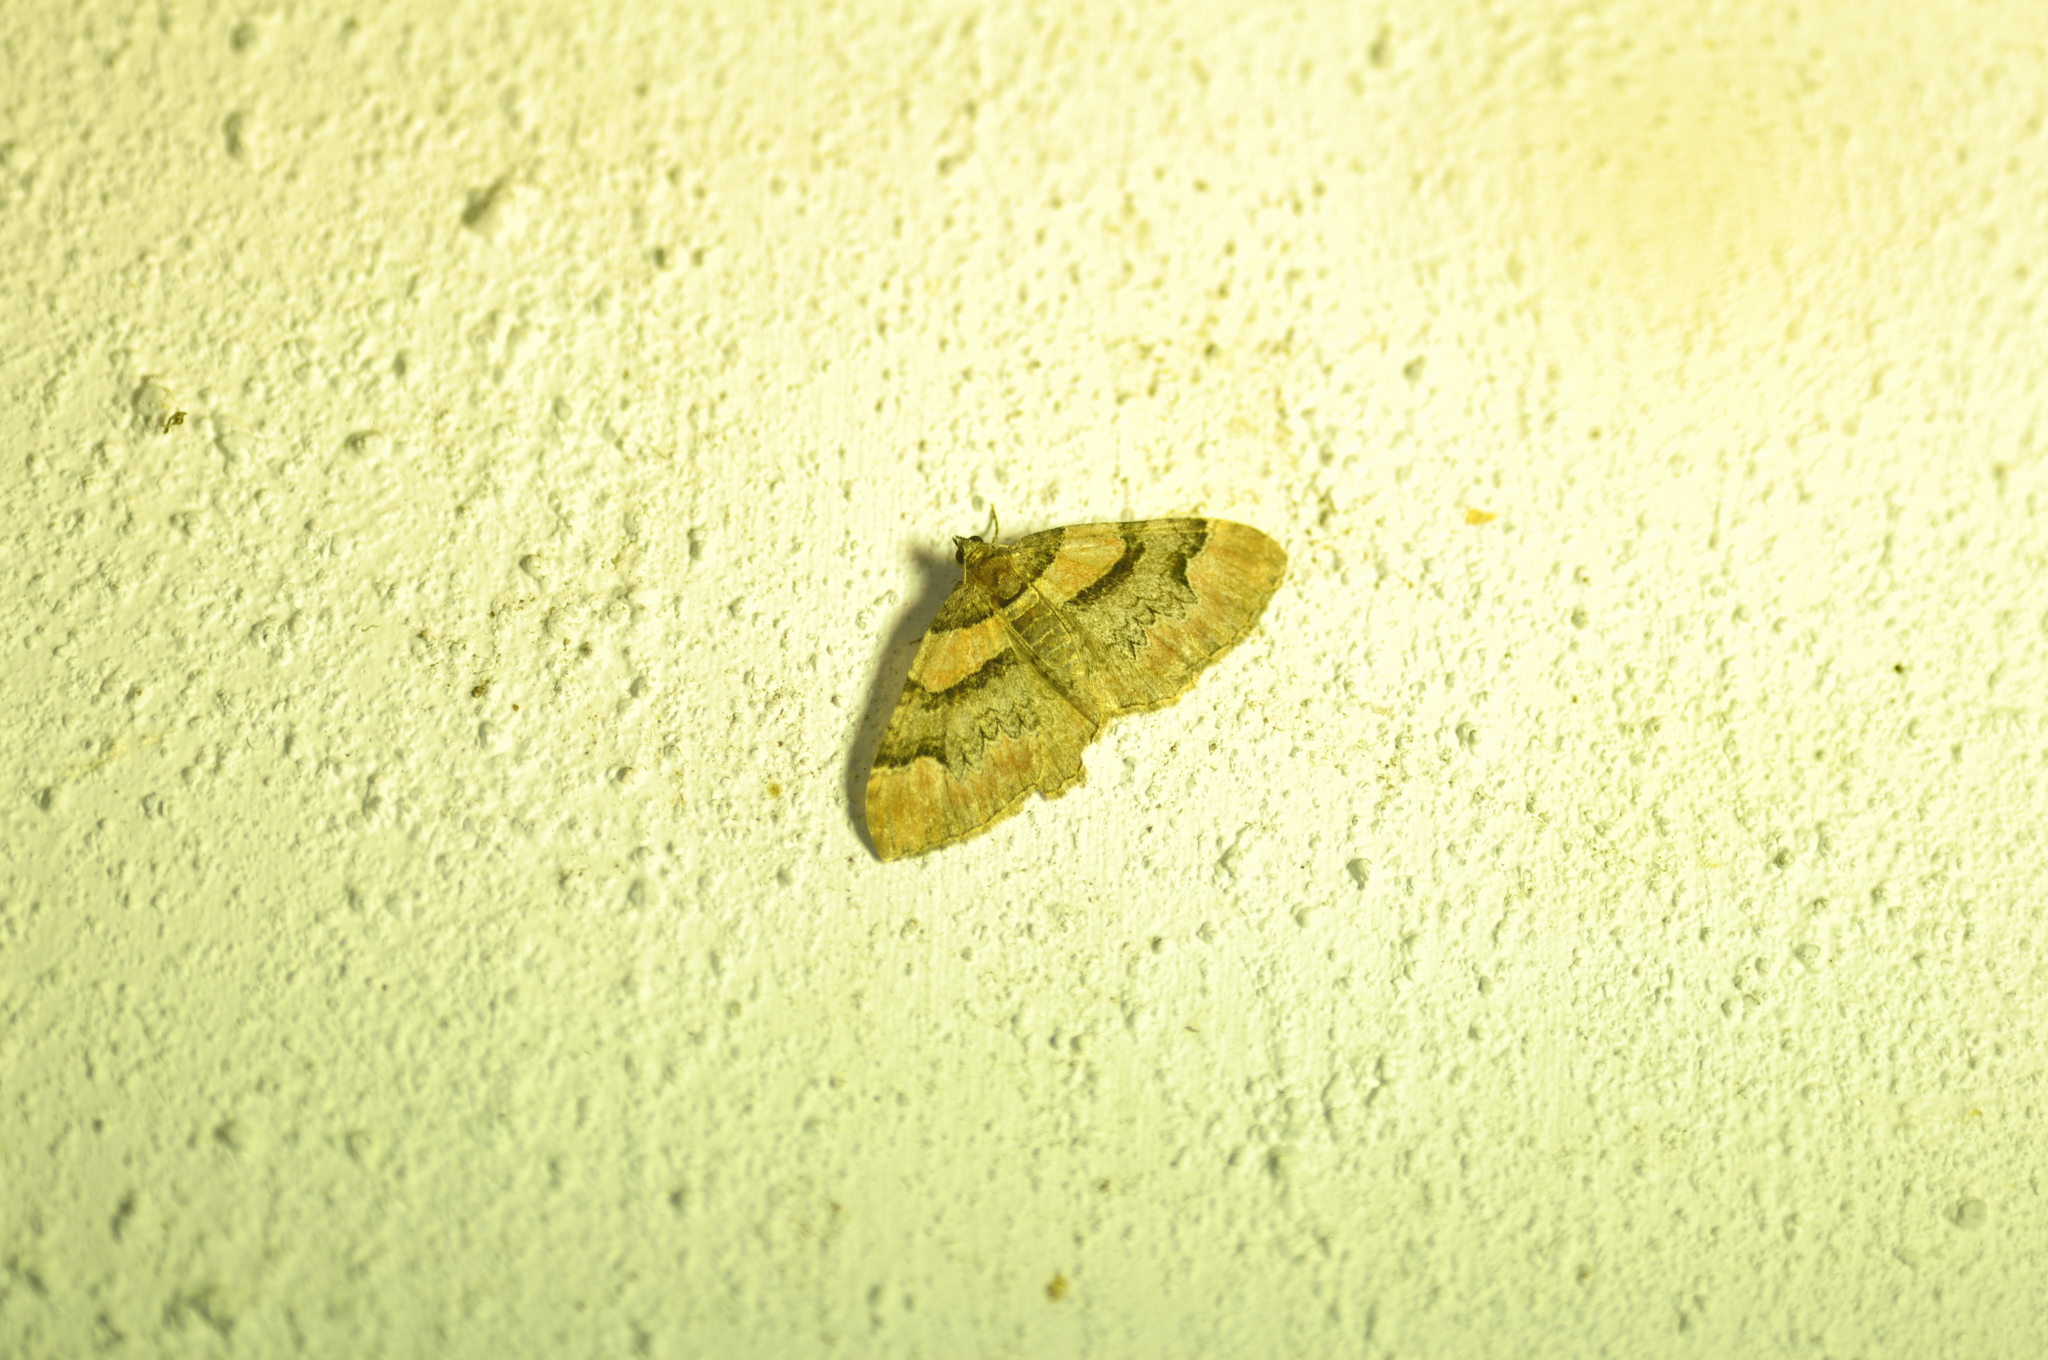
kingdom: Animalia
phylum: Arthropoda
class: Insecta
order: Lepidoptera
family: Geometridae
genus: Catarhoe
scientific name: Catarhoe rubidata
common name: Ruddy carpet
